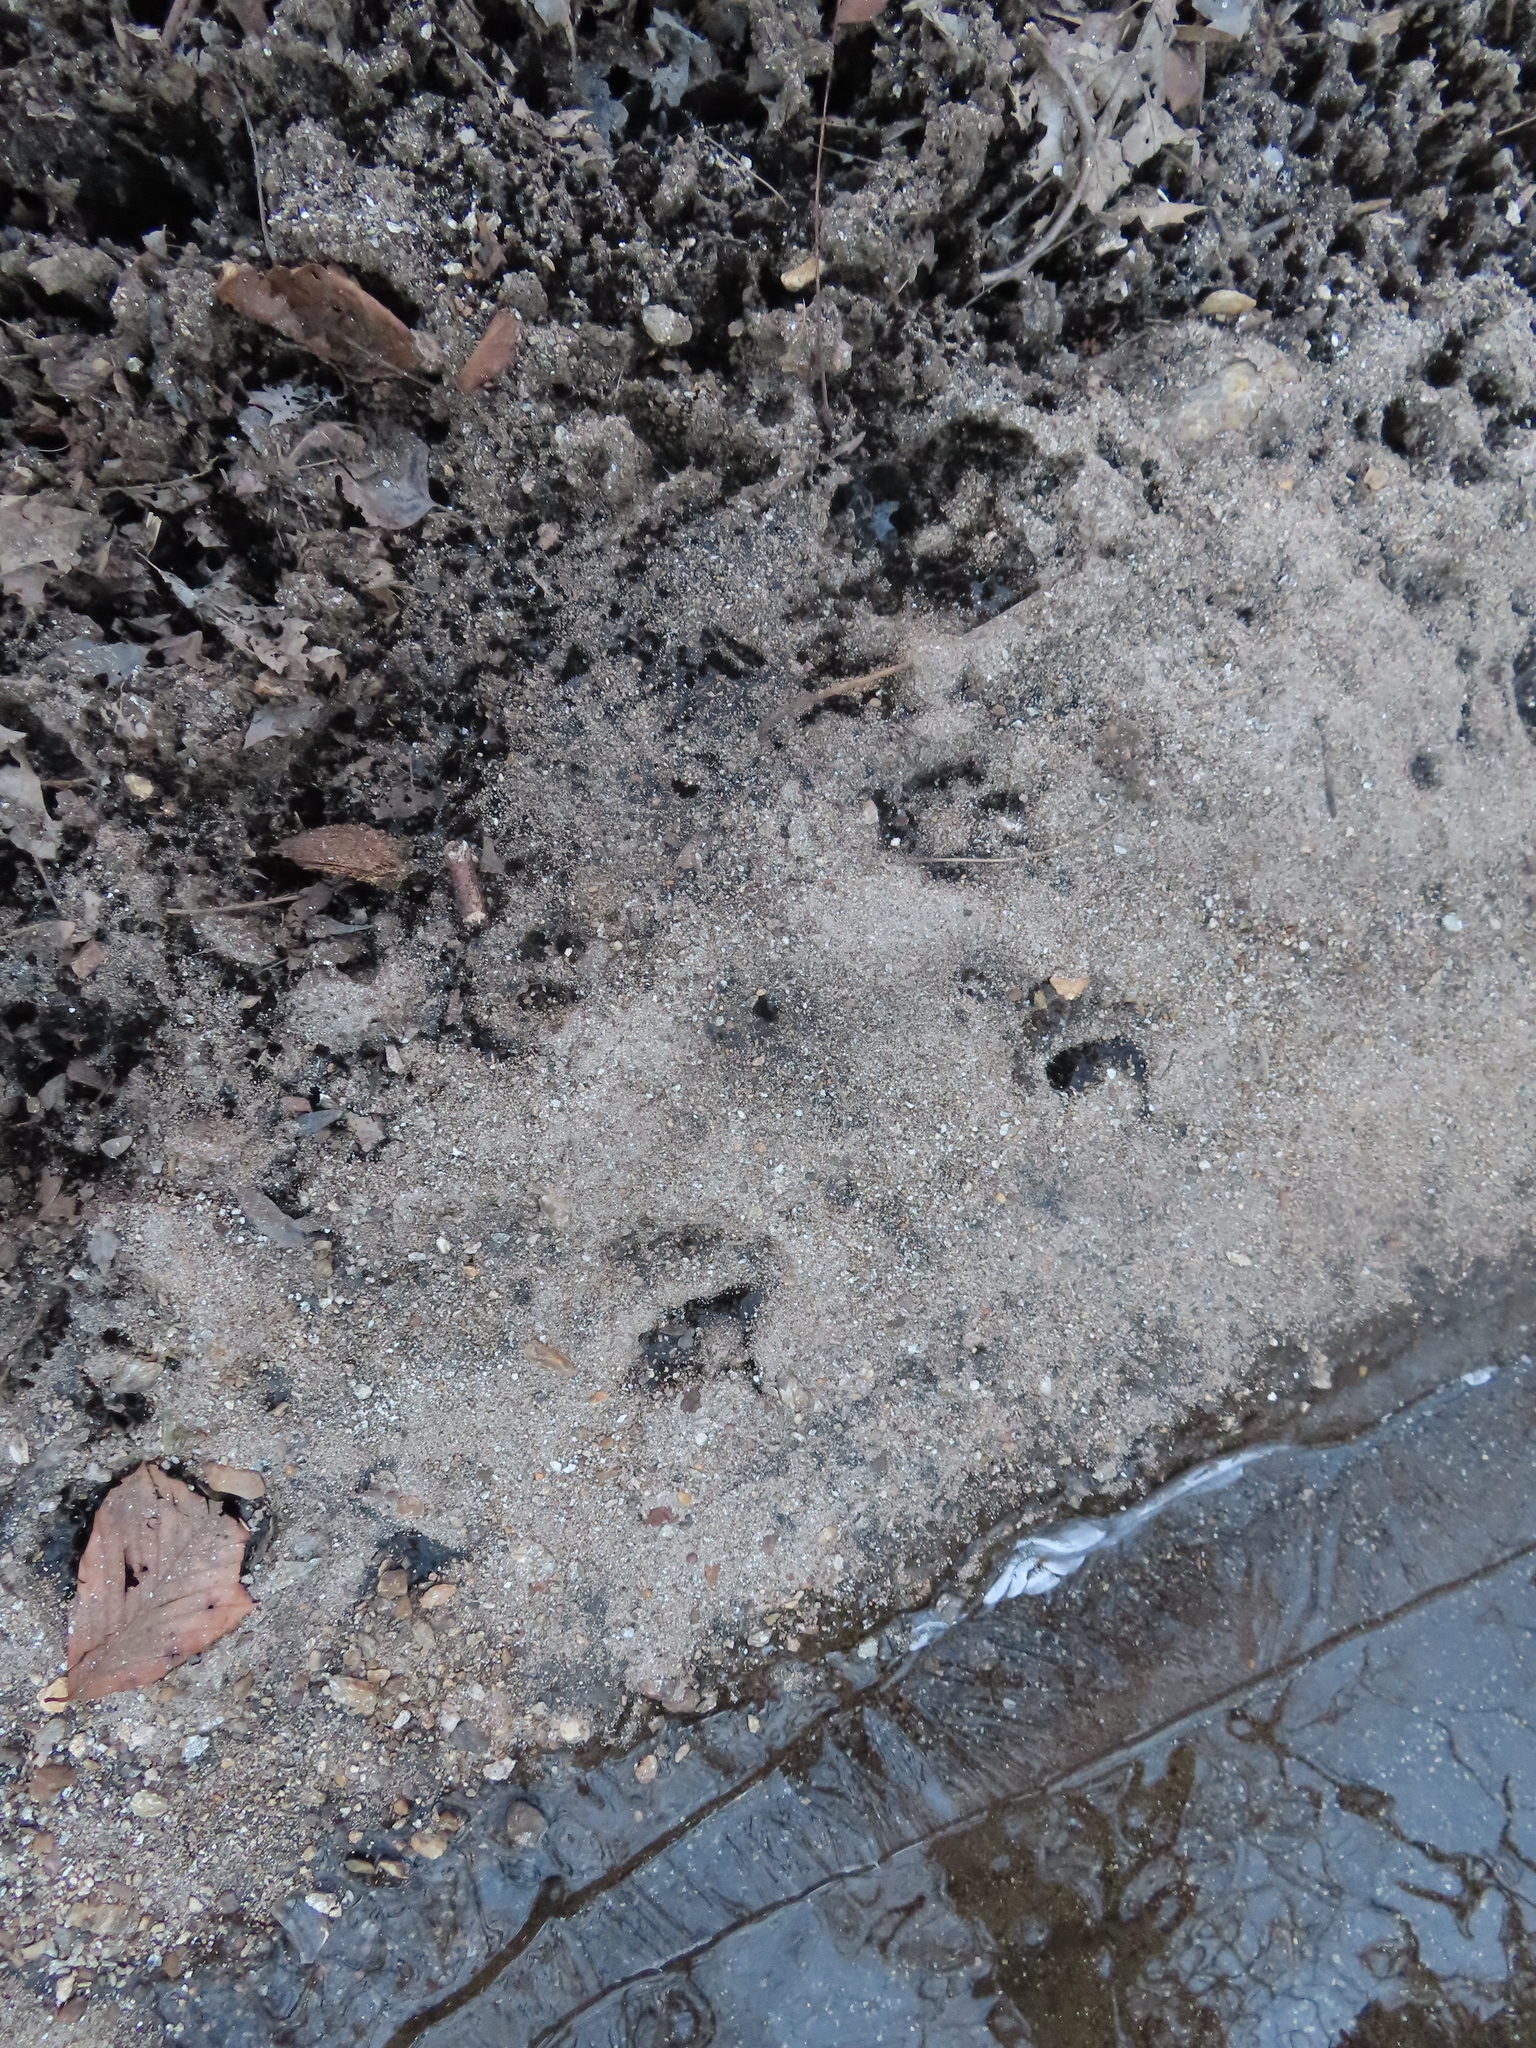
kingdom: Animalia
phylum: Chordata
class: Mammalia
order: Artiodactyla
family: Cervidae
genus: Odocoileus
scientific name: Odocoileus virginianus
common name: White-tailed deer
